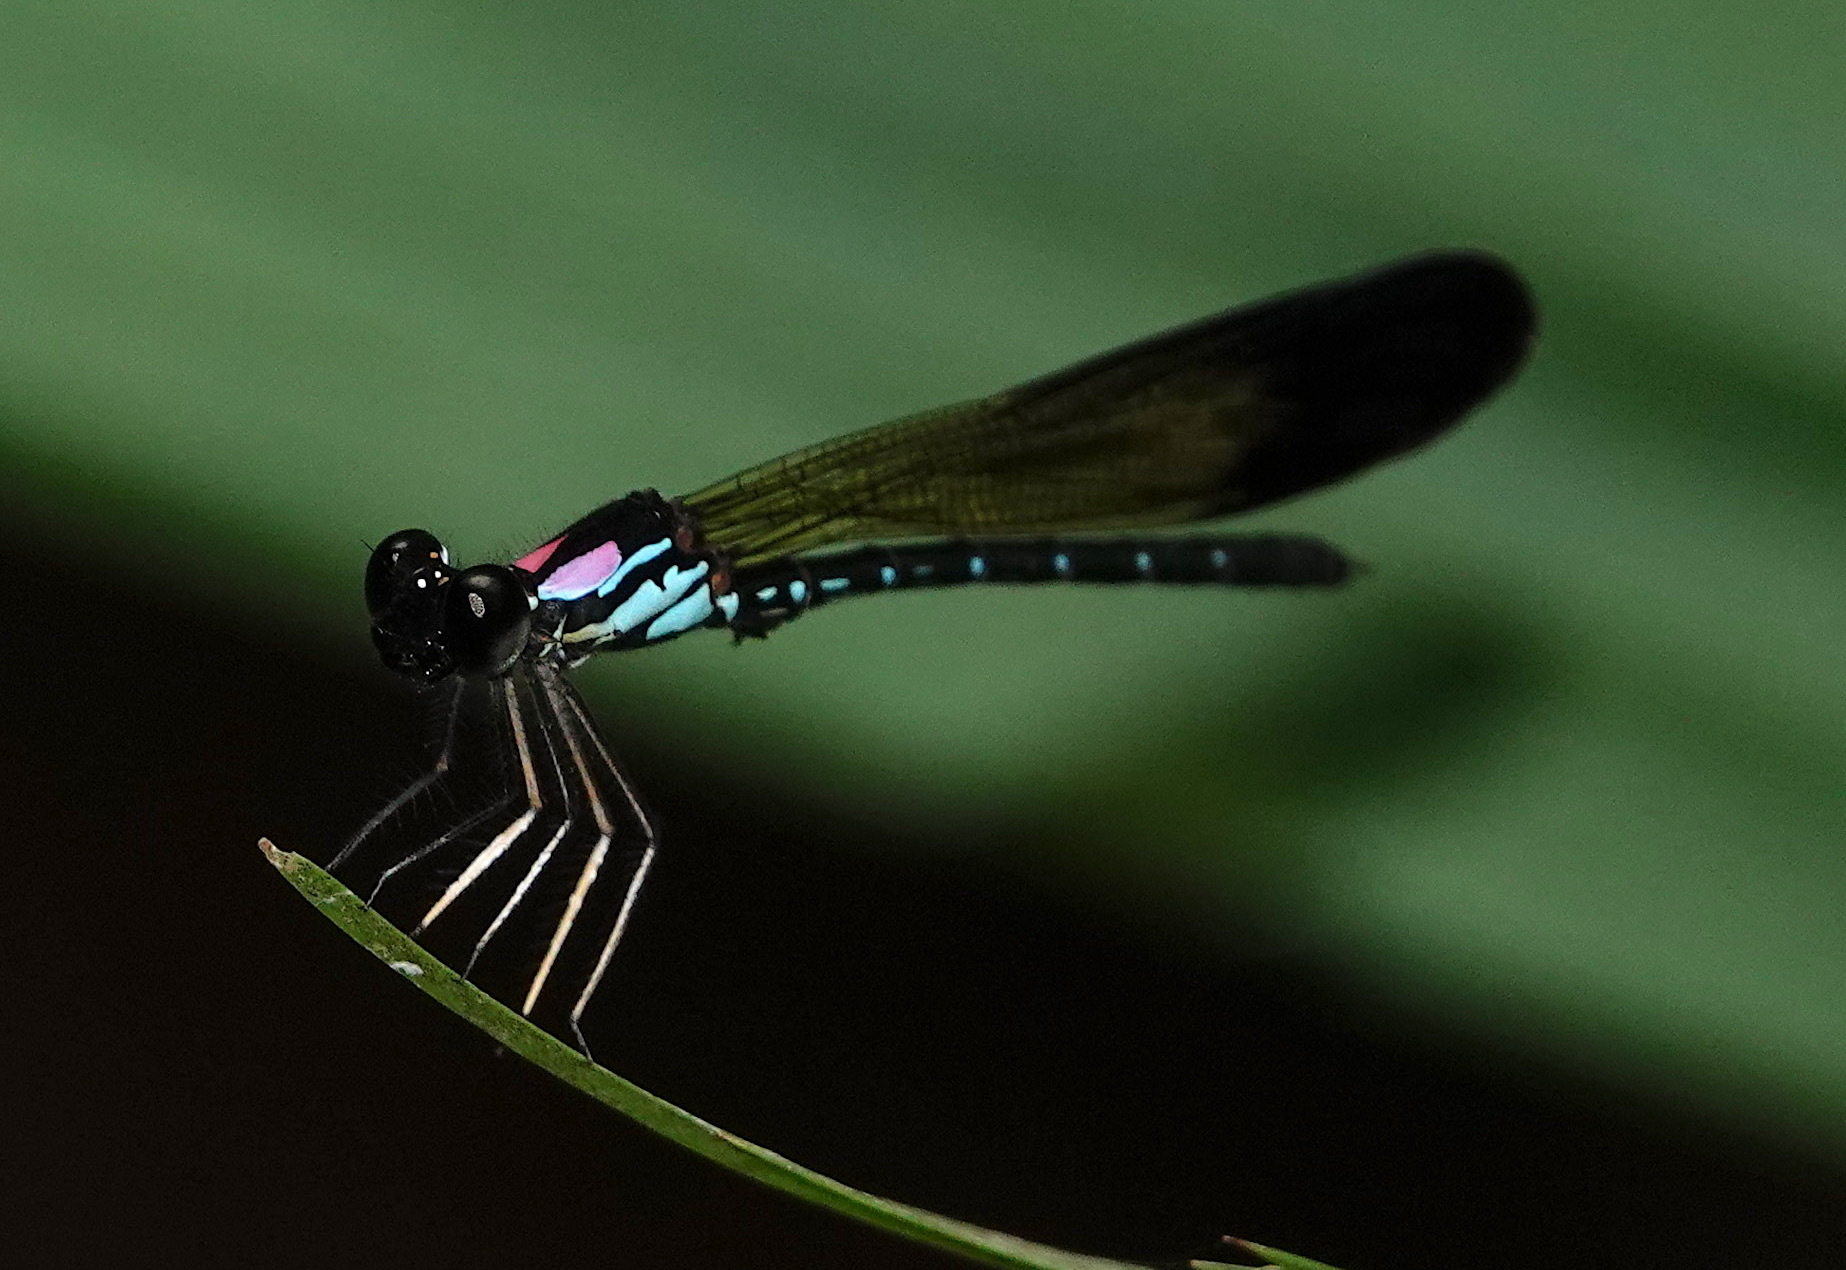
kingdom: Animalia
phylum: Arthropoda
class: Insecta
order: Odonata
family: Chlorocyphidae
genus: Heliocypha
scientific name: Heliocypha biforata
